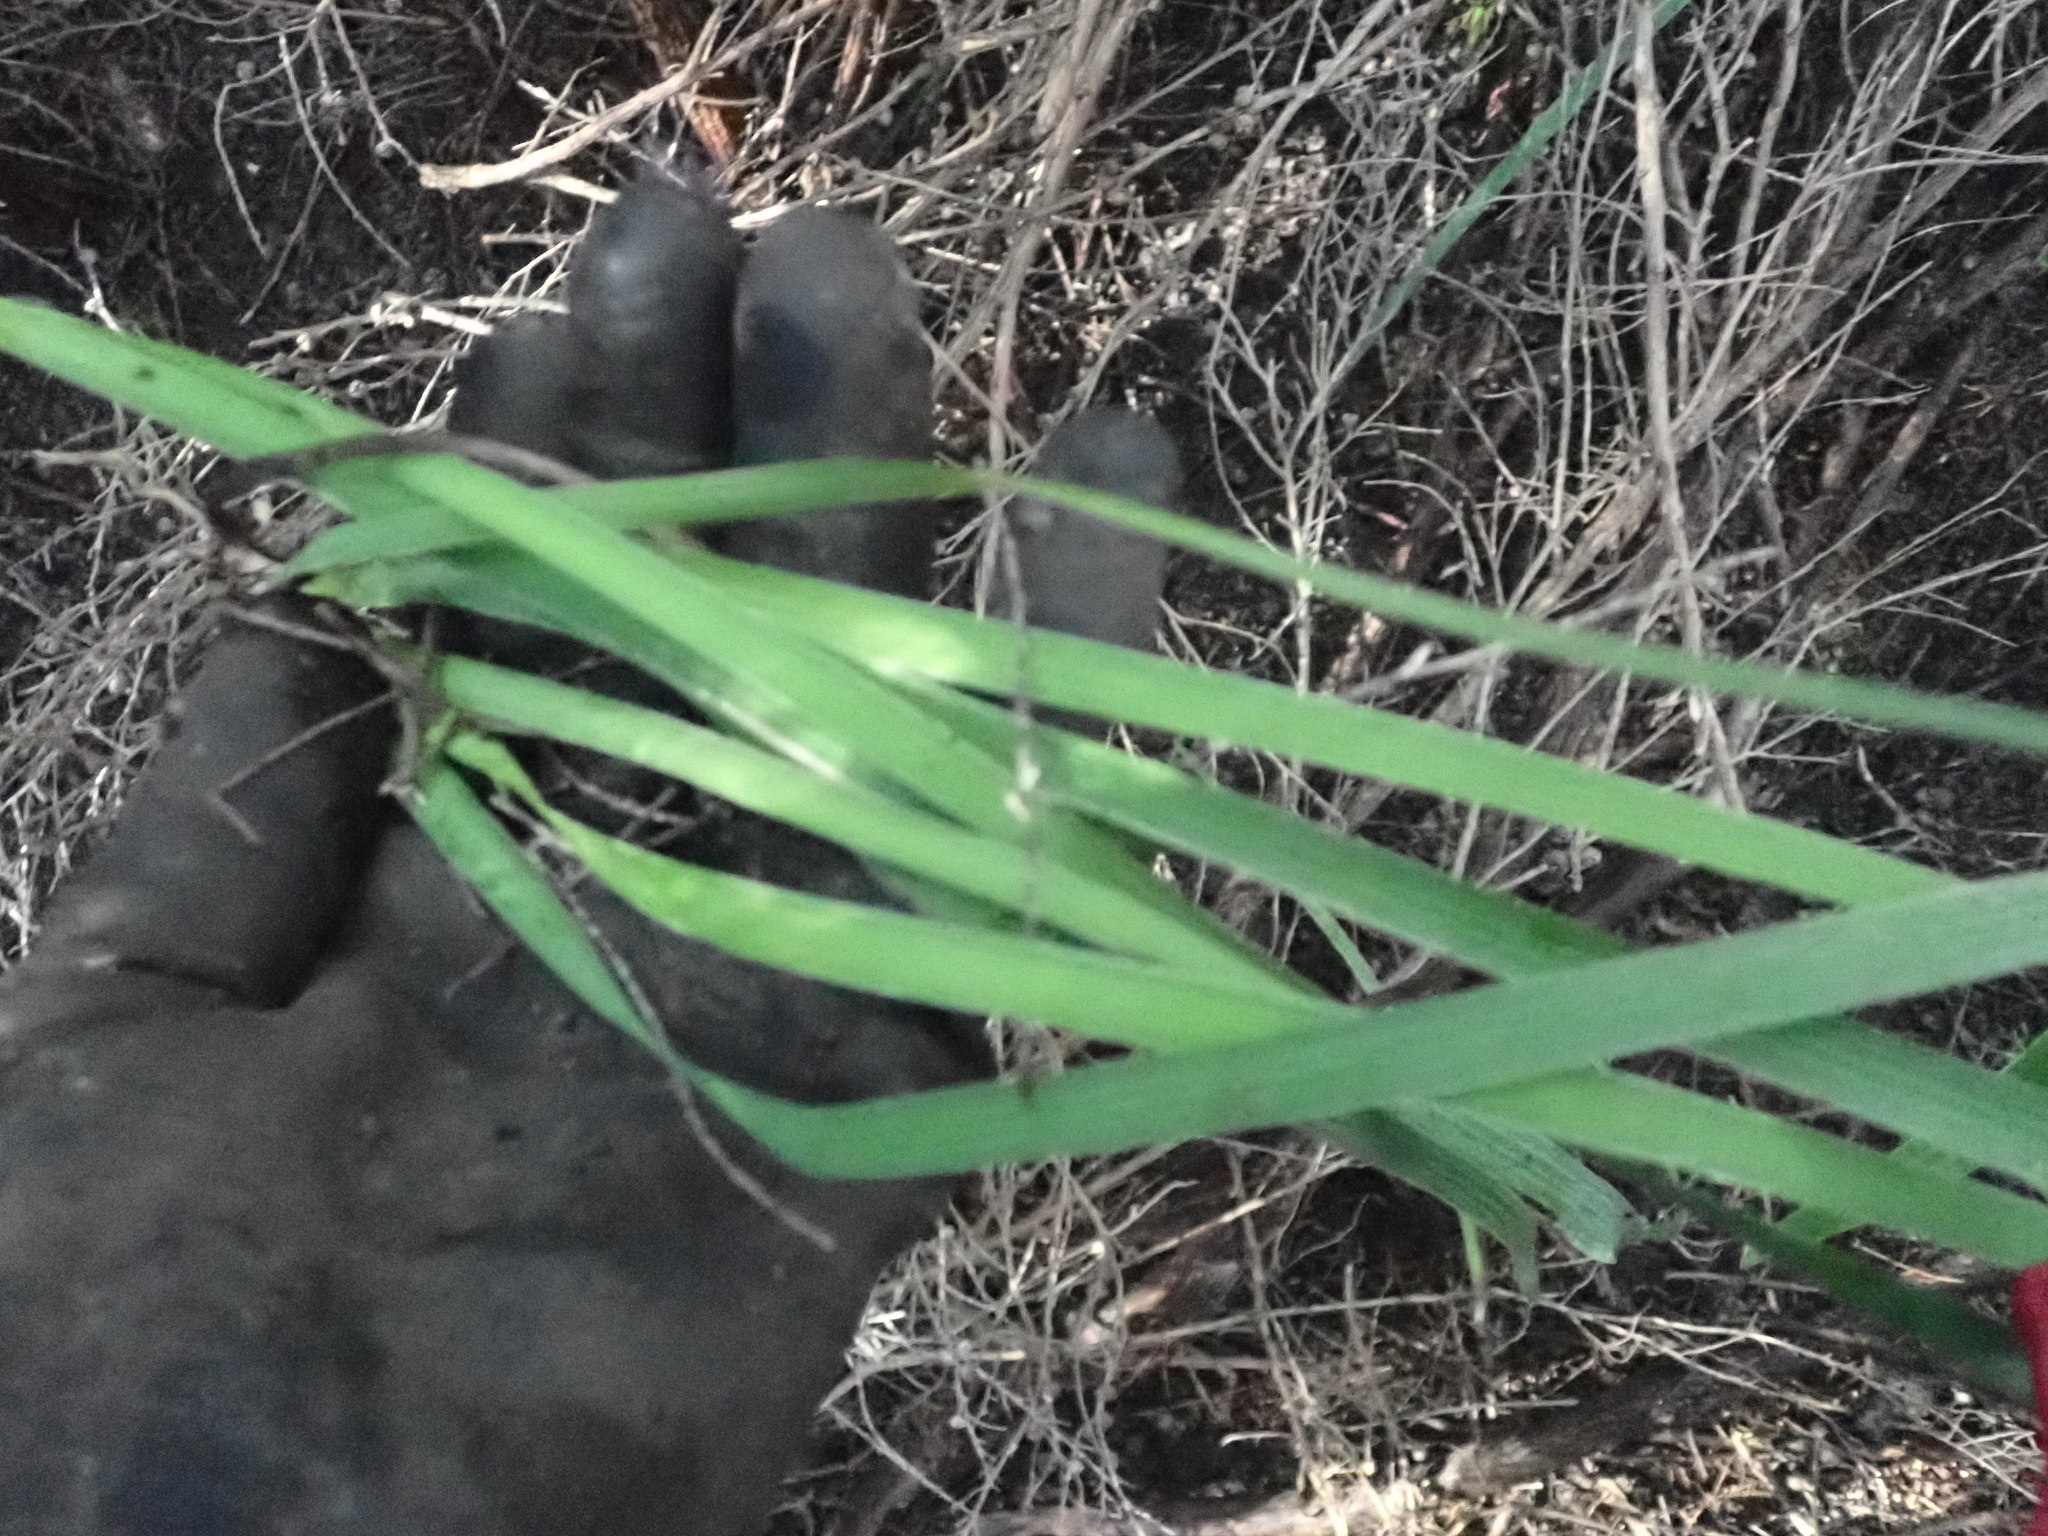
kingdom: Plantae
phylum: Tracheophyta
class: Liliopsida
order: Asparagales
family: Iridaceae
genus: Aristea
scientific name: Aristea ecklonii
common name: Blue corn-lily
